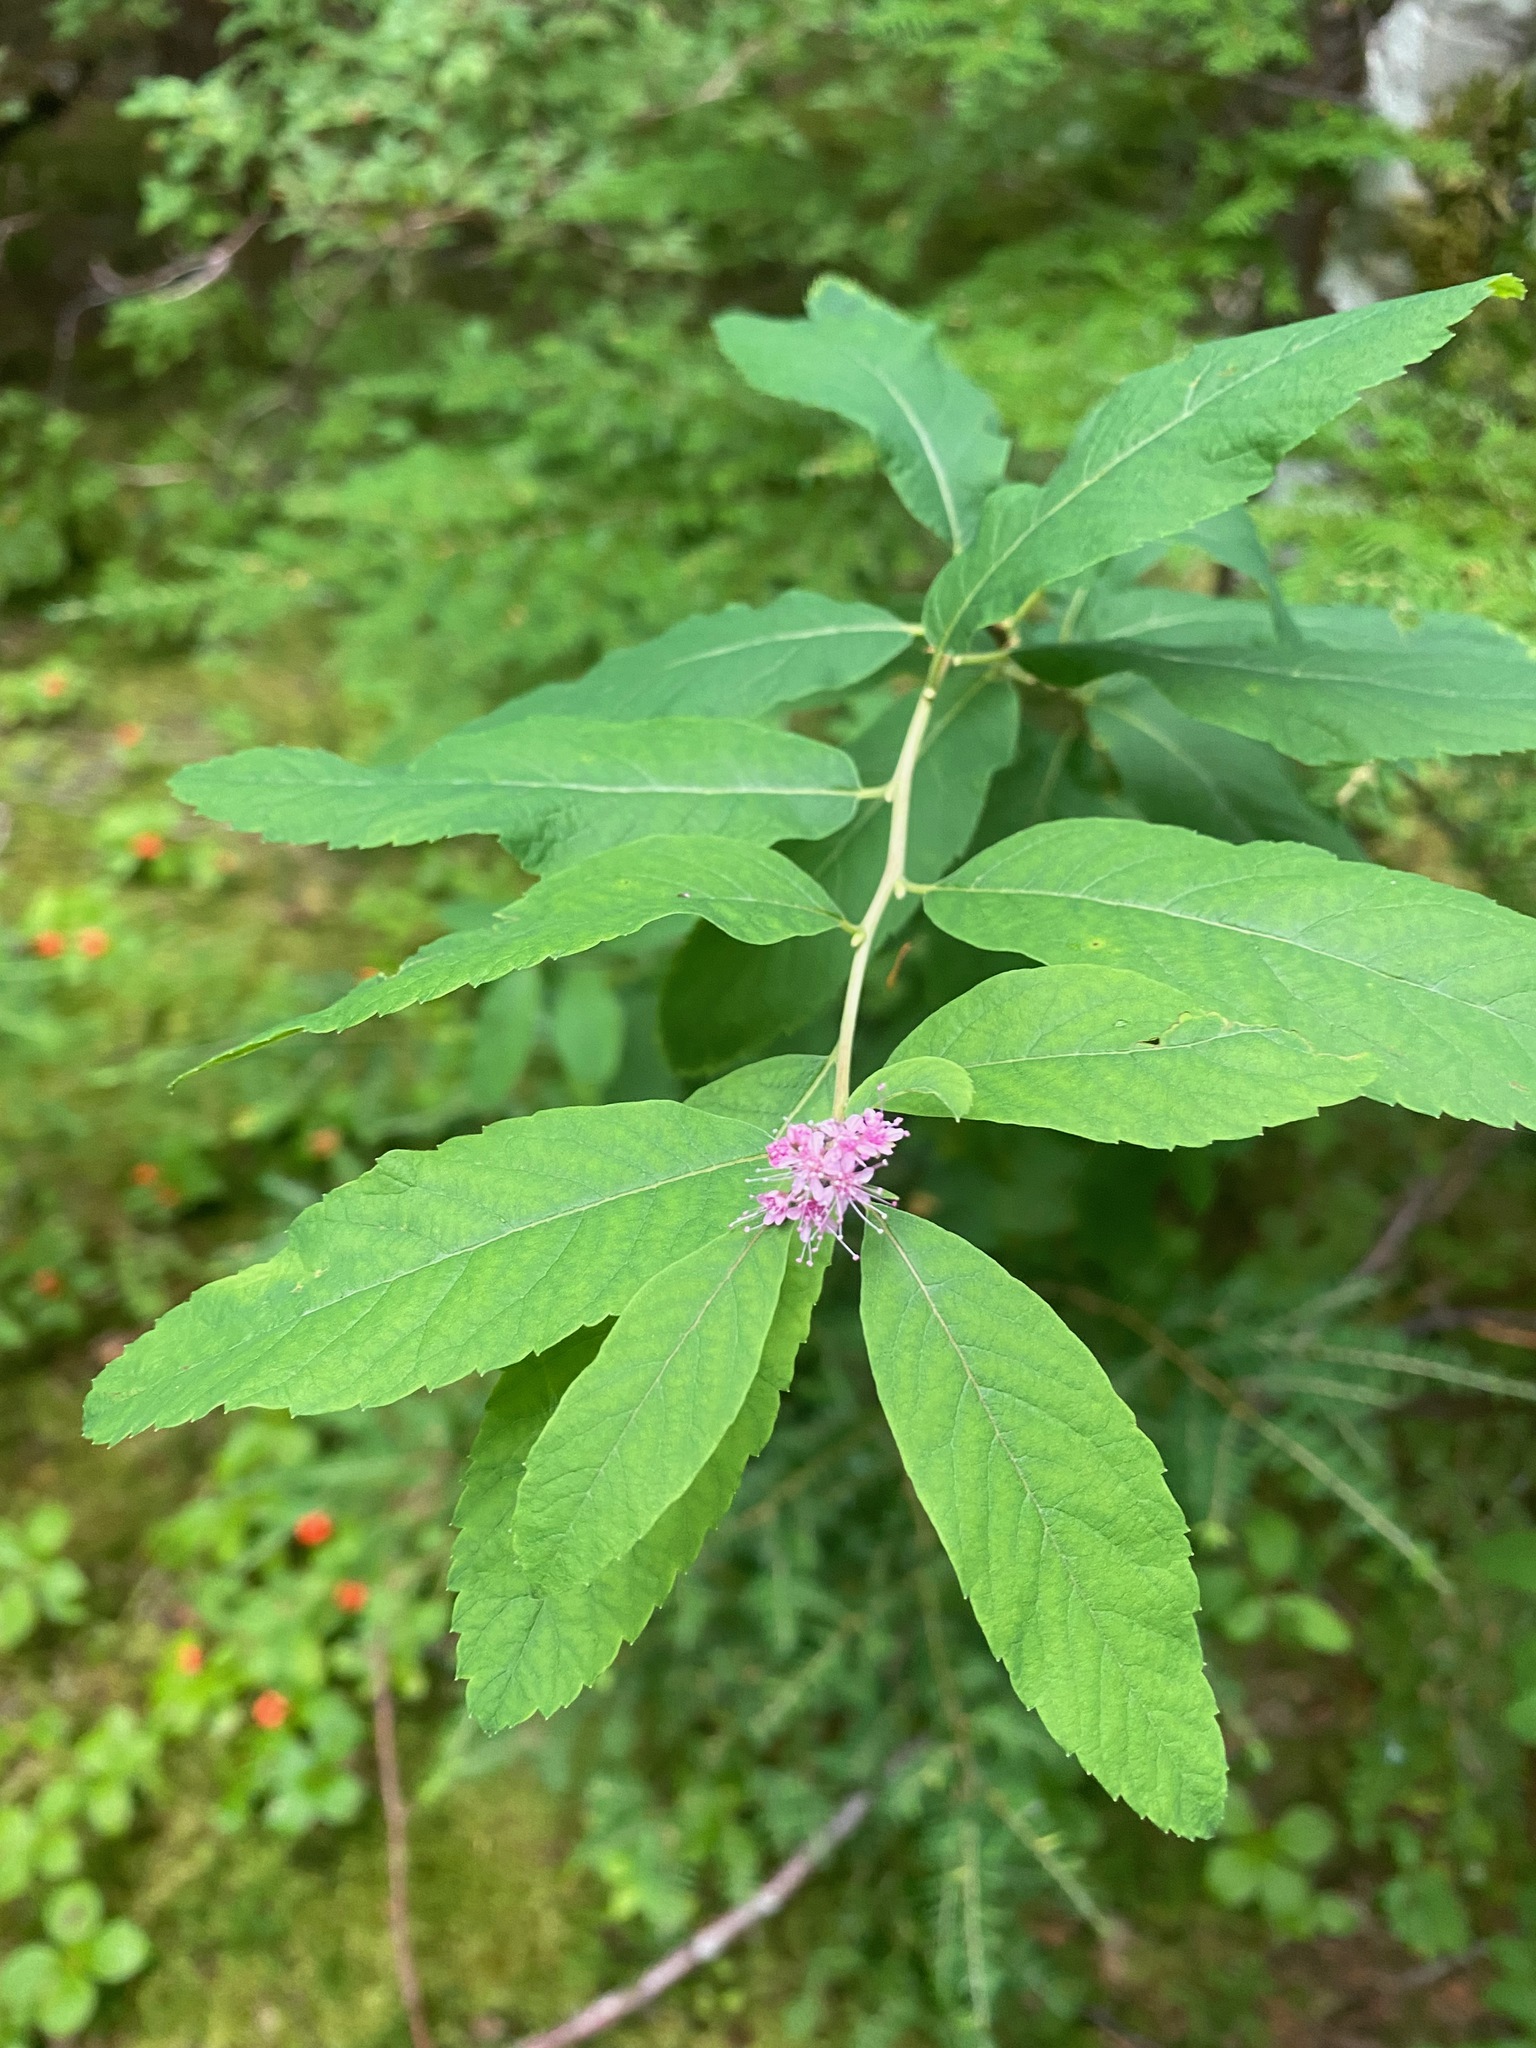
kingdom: Plantae
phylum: Tracheophyta
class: Magnoliopsida
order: Rosales
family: Rosaceae
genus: Spiraea
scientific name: Spiraea douglasii
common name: Steeplebush
